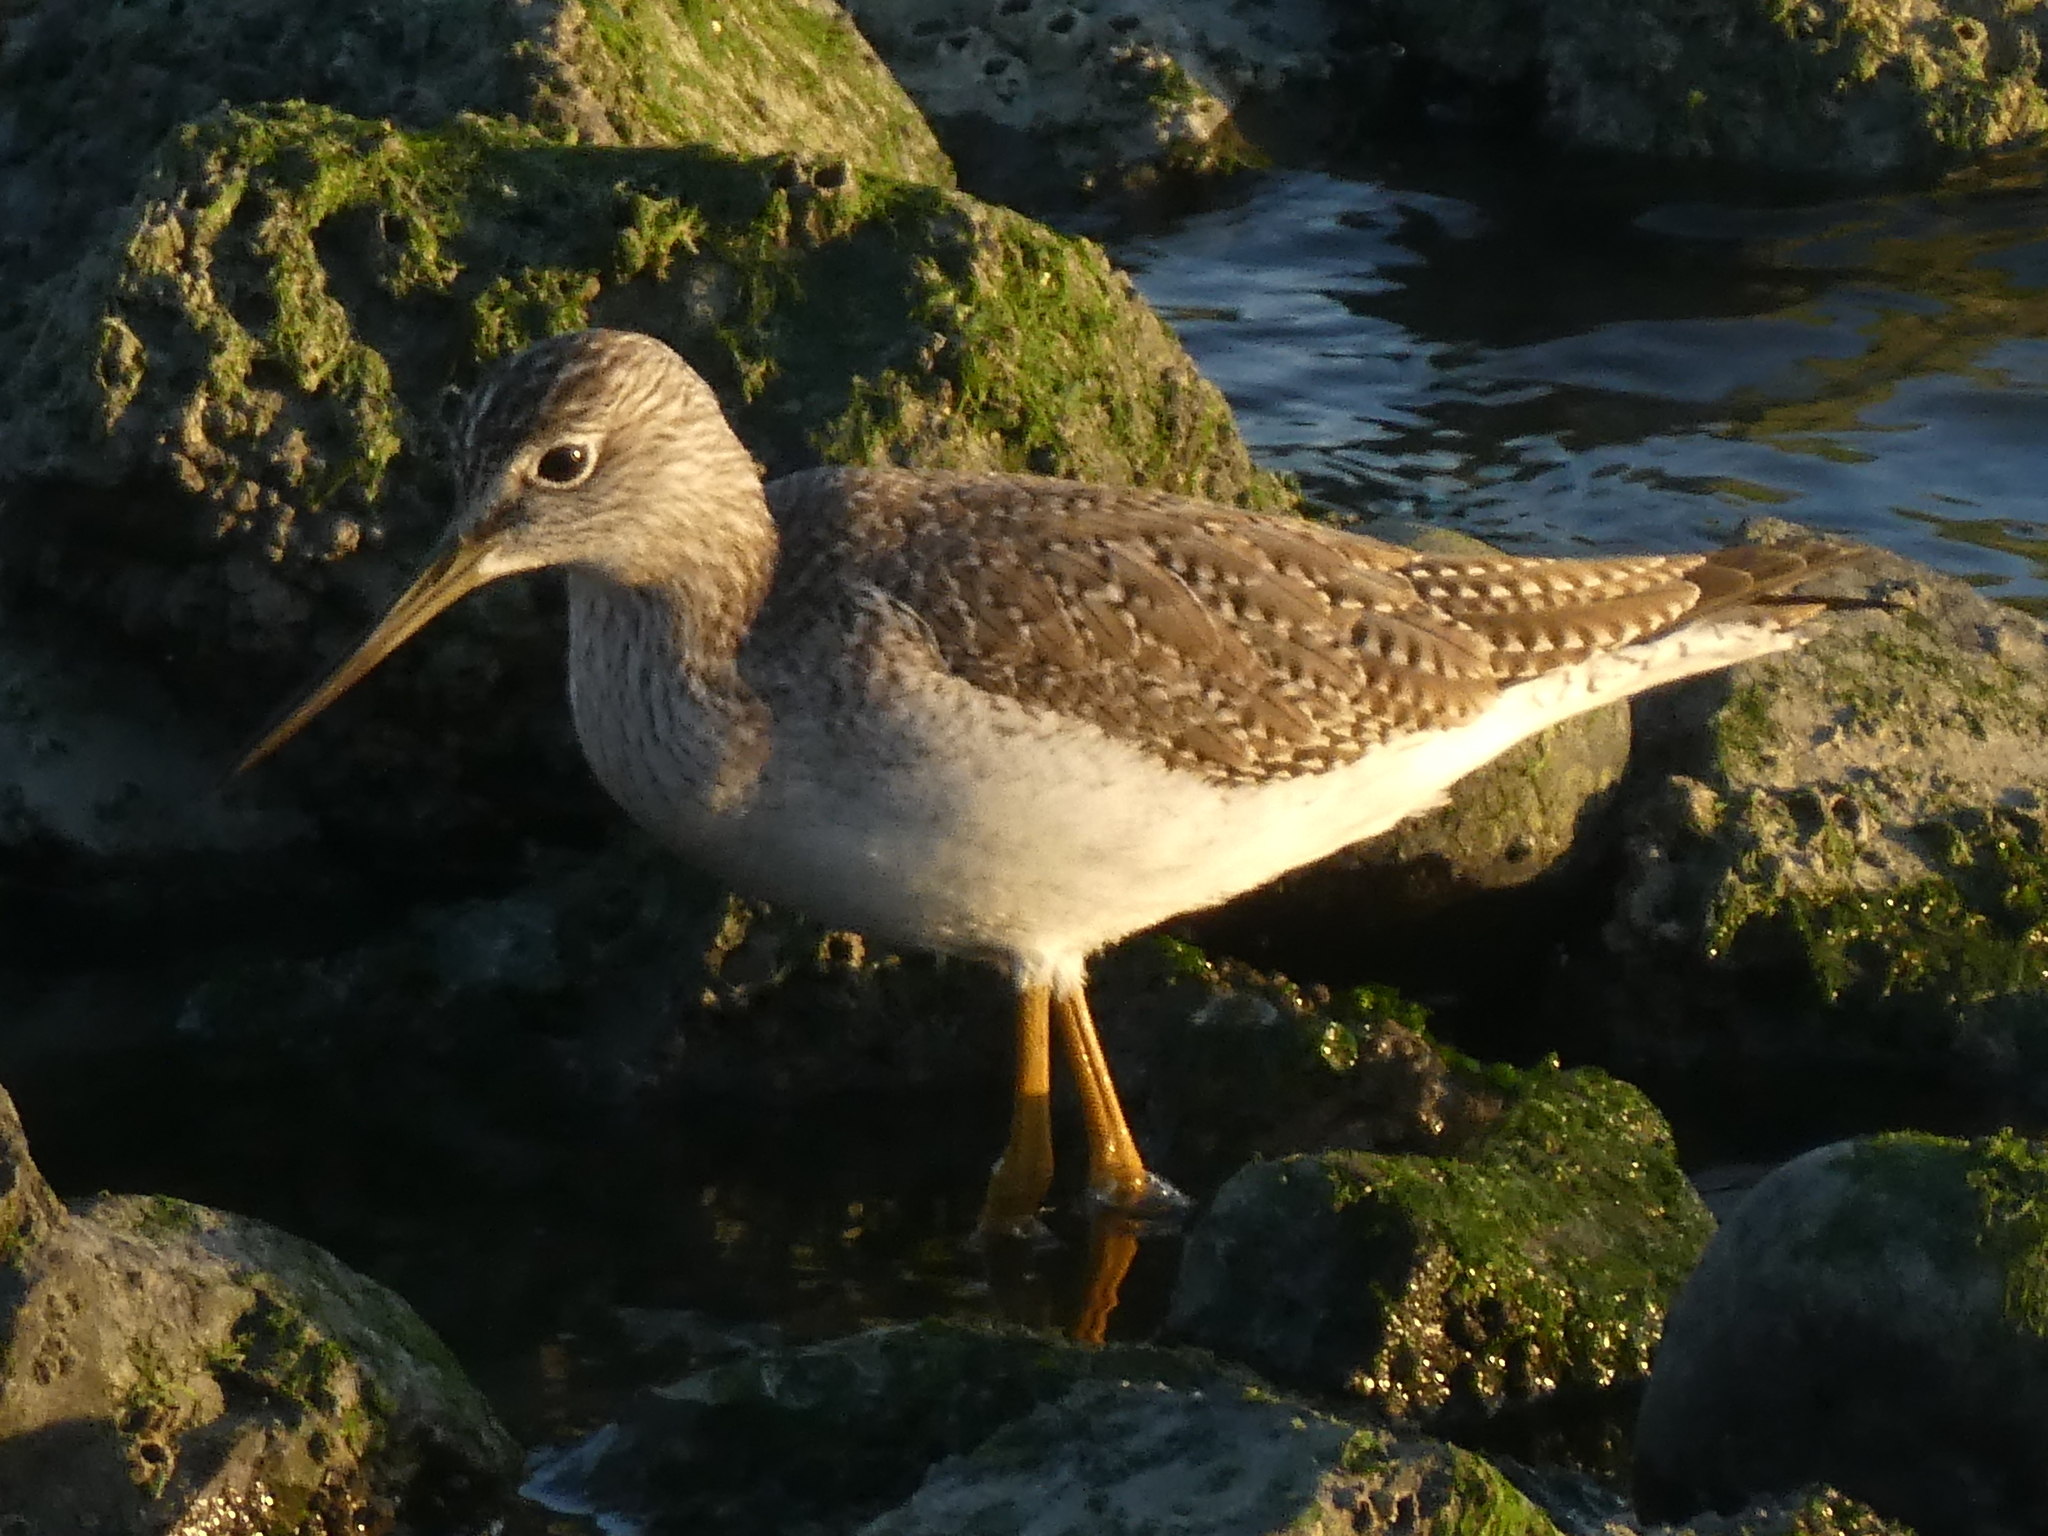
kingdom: Animalia
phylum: Chordata
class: Aves
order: Charadriiformes
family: Scolopacidae
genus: Tringa
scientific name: Tringa melanoleuca
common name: Greater yellowlegs
